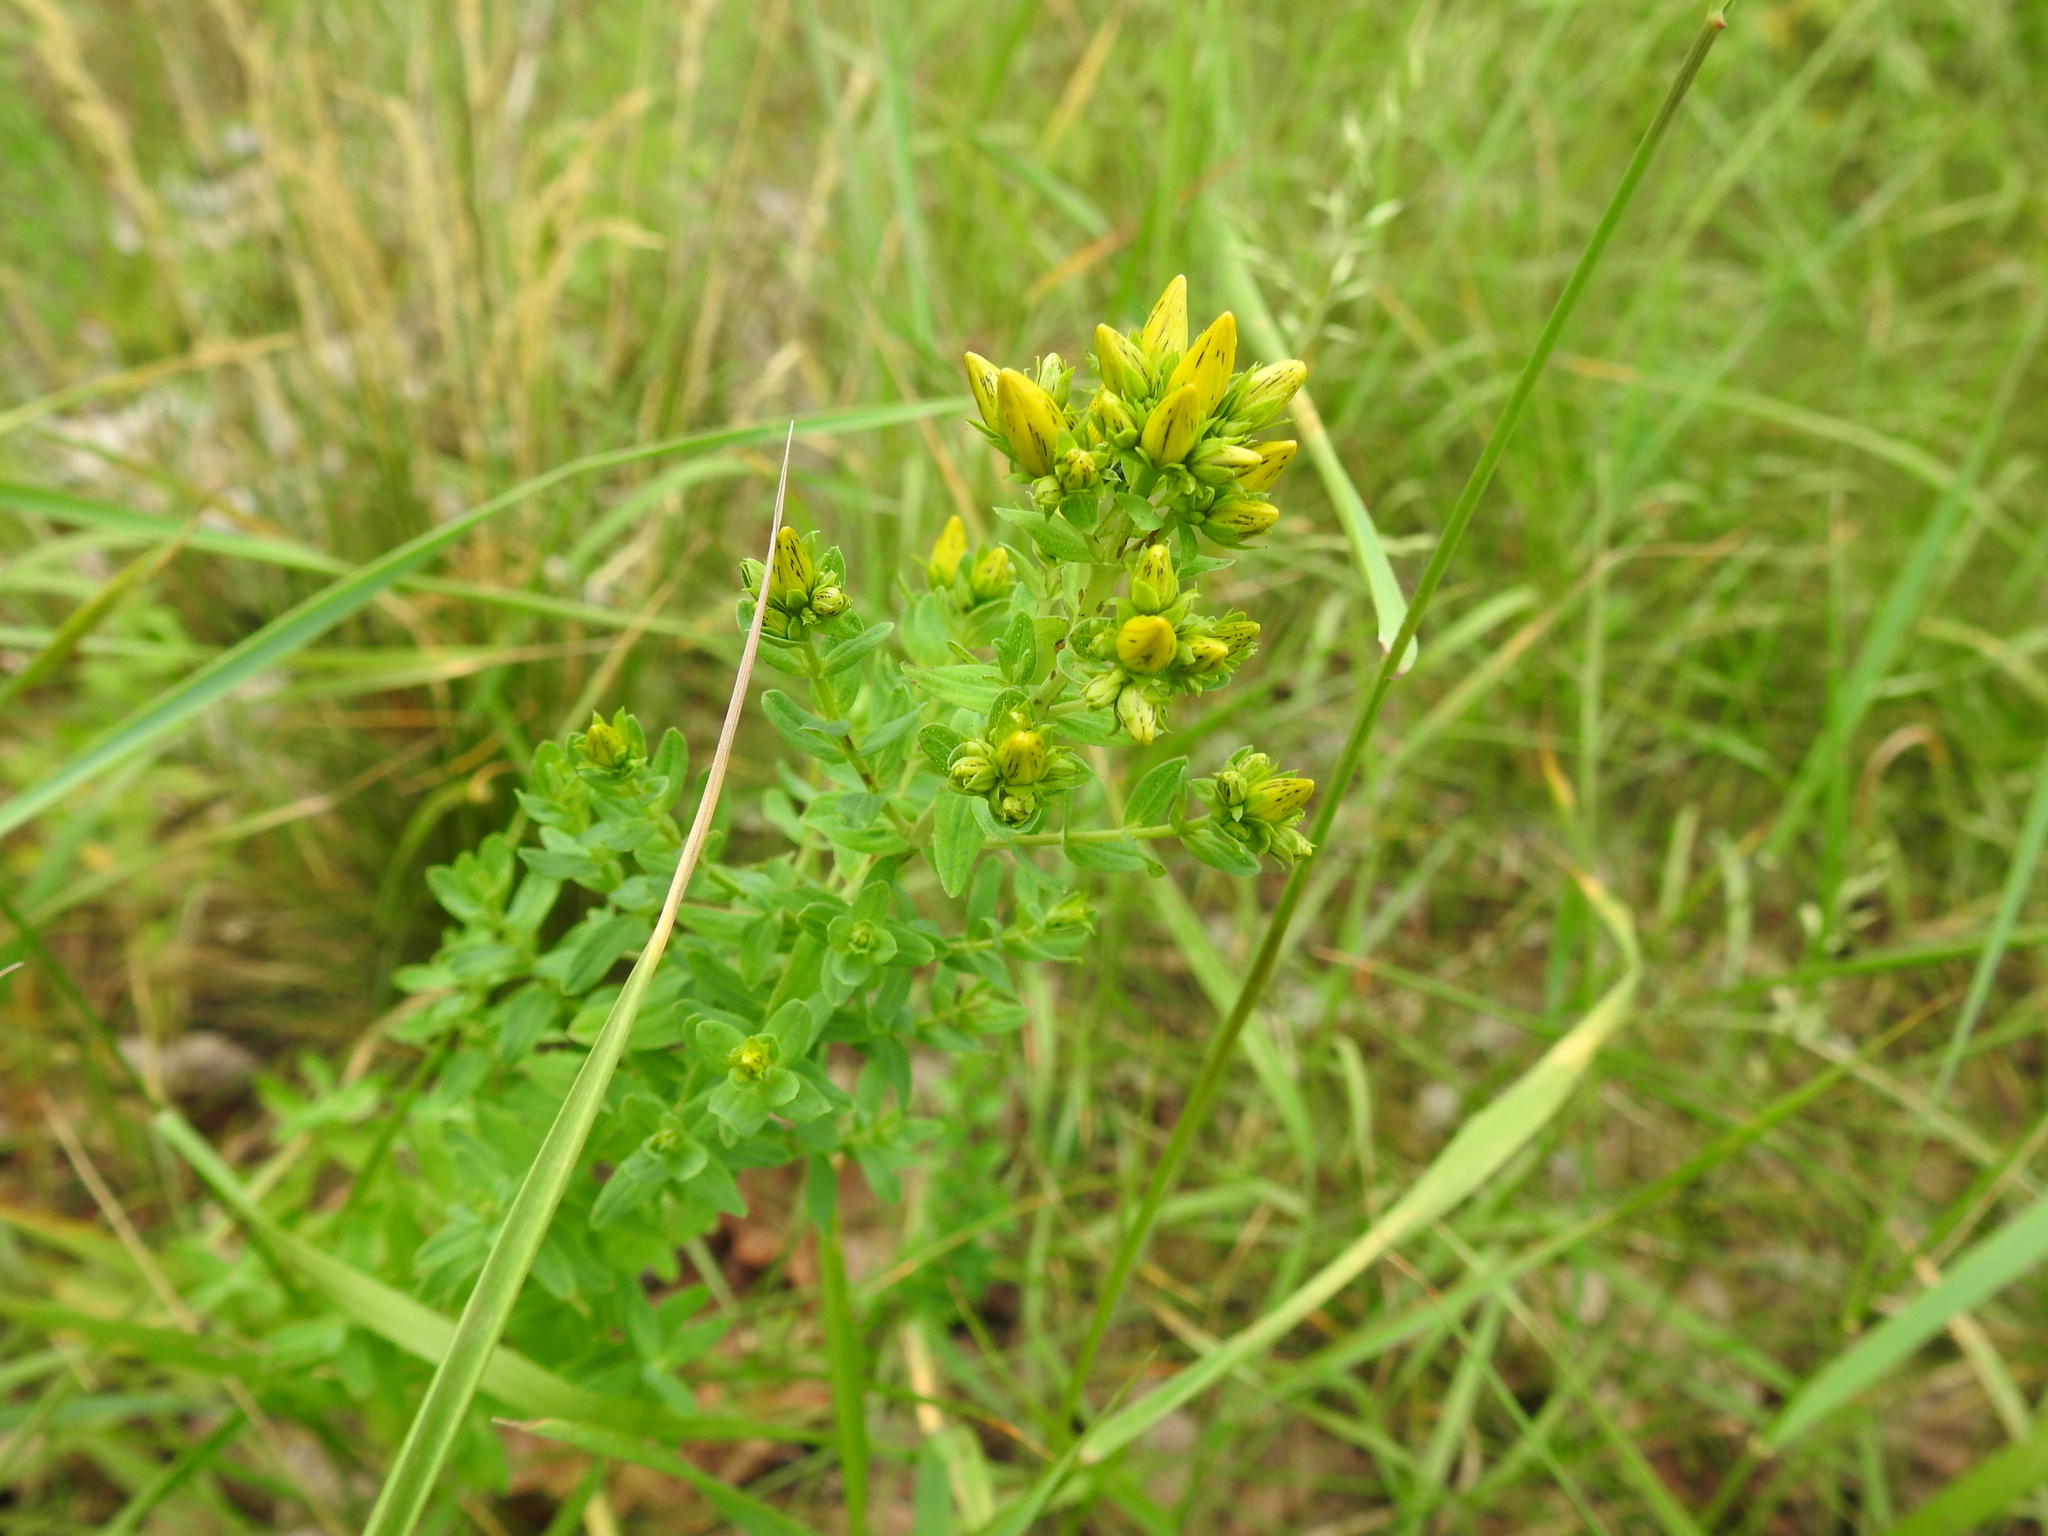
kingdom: Plantae
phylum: Tracheophyta
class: Magnoliopsida
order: Malpighiales
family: Hypericaceae
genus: Hypericum
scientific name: Hypericum desetangsii
